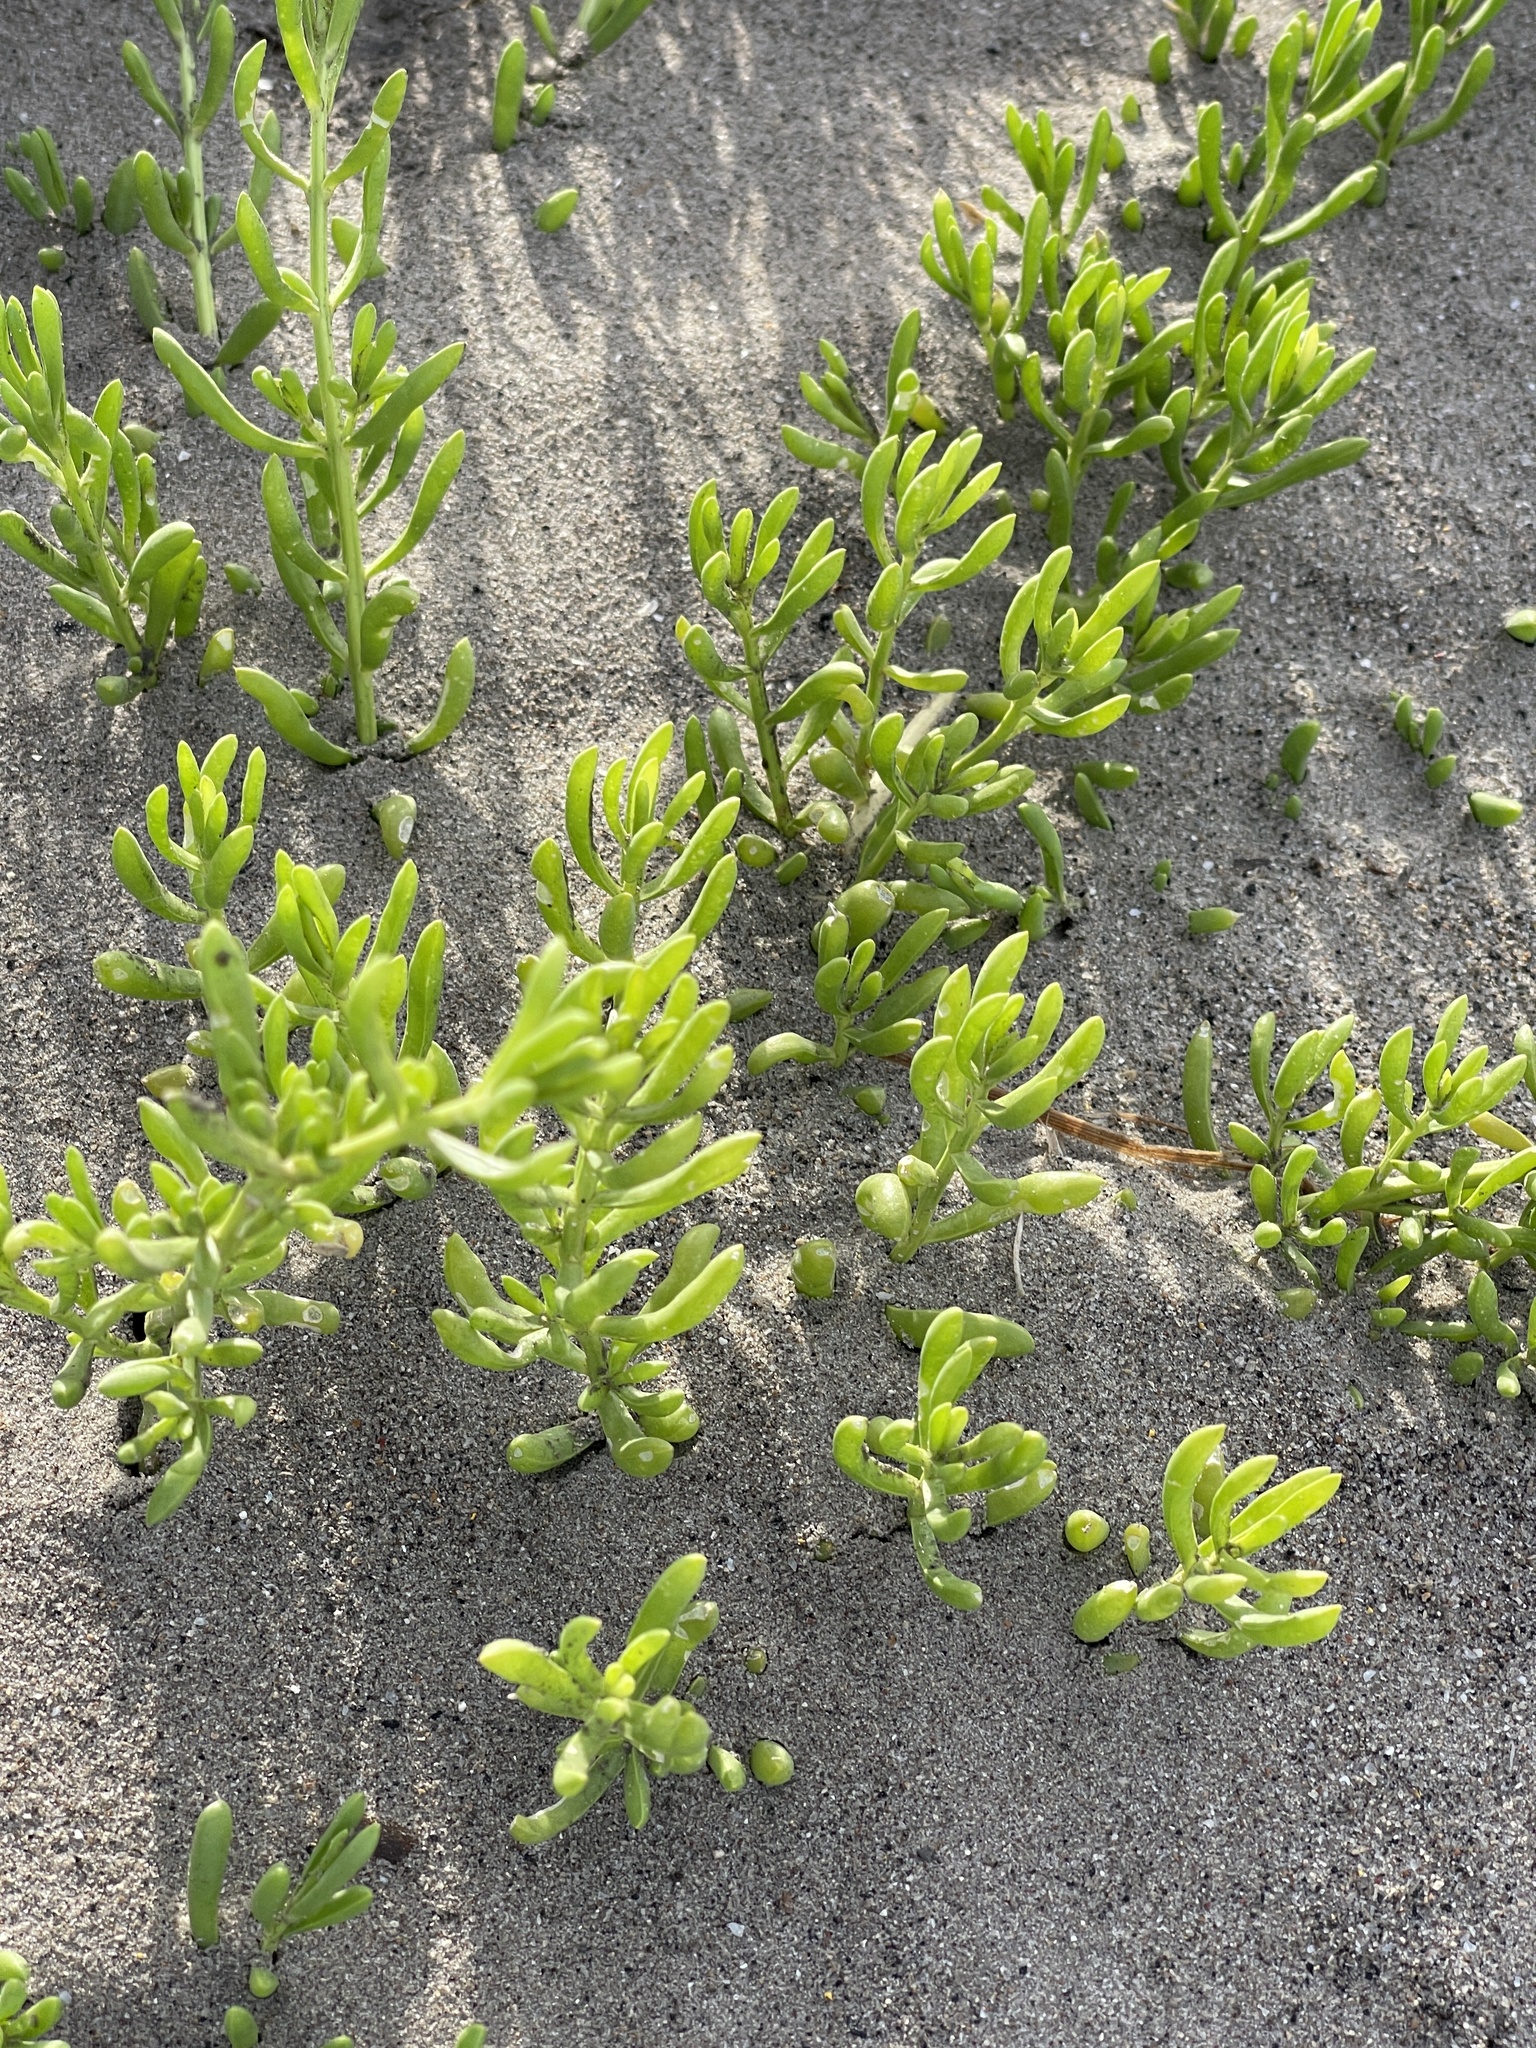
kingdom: Plantae
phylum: Tracheophyta
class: Magnoliopsida
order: Brassicales
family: Bataceae
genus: Batis
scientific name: Batis maritima
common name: Turtleweed
